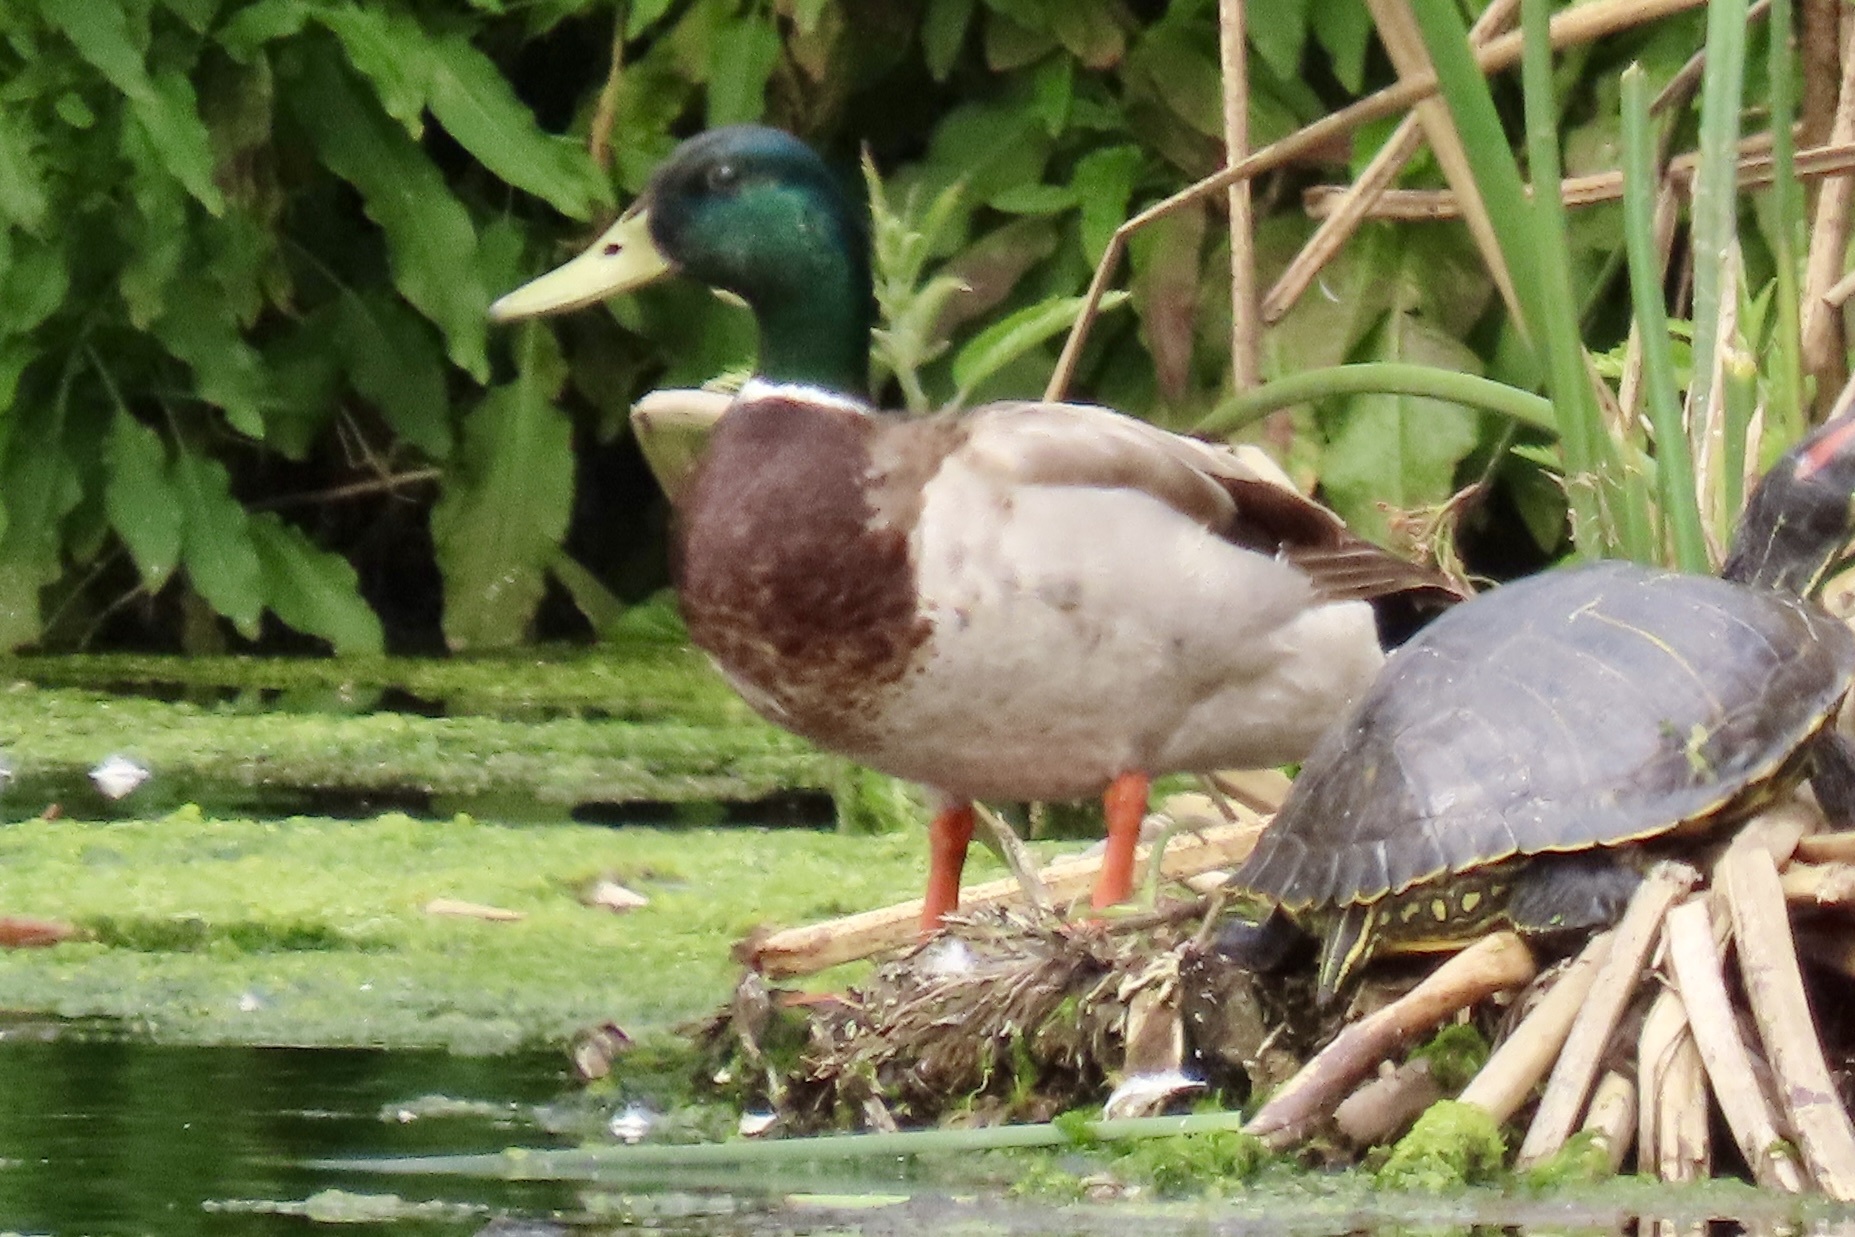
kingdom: Animalia
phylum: Chordata
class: Aves
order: Anseriformes
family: Anatidae
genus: Anas
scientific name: Anas platyrhynchos
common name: Mallard
